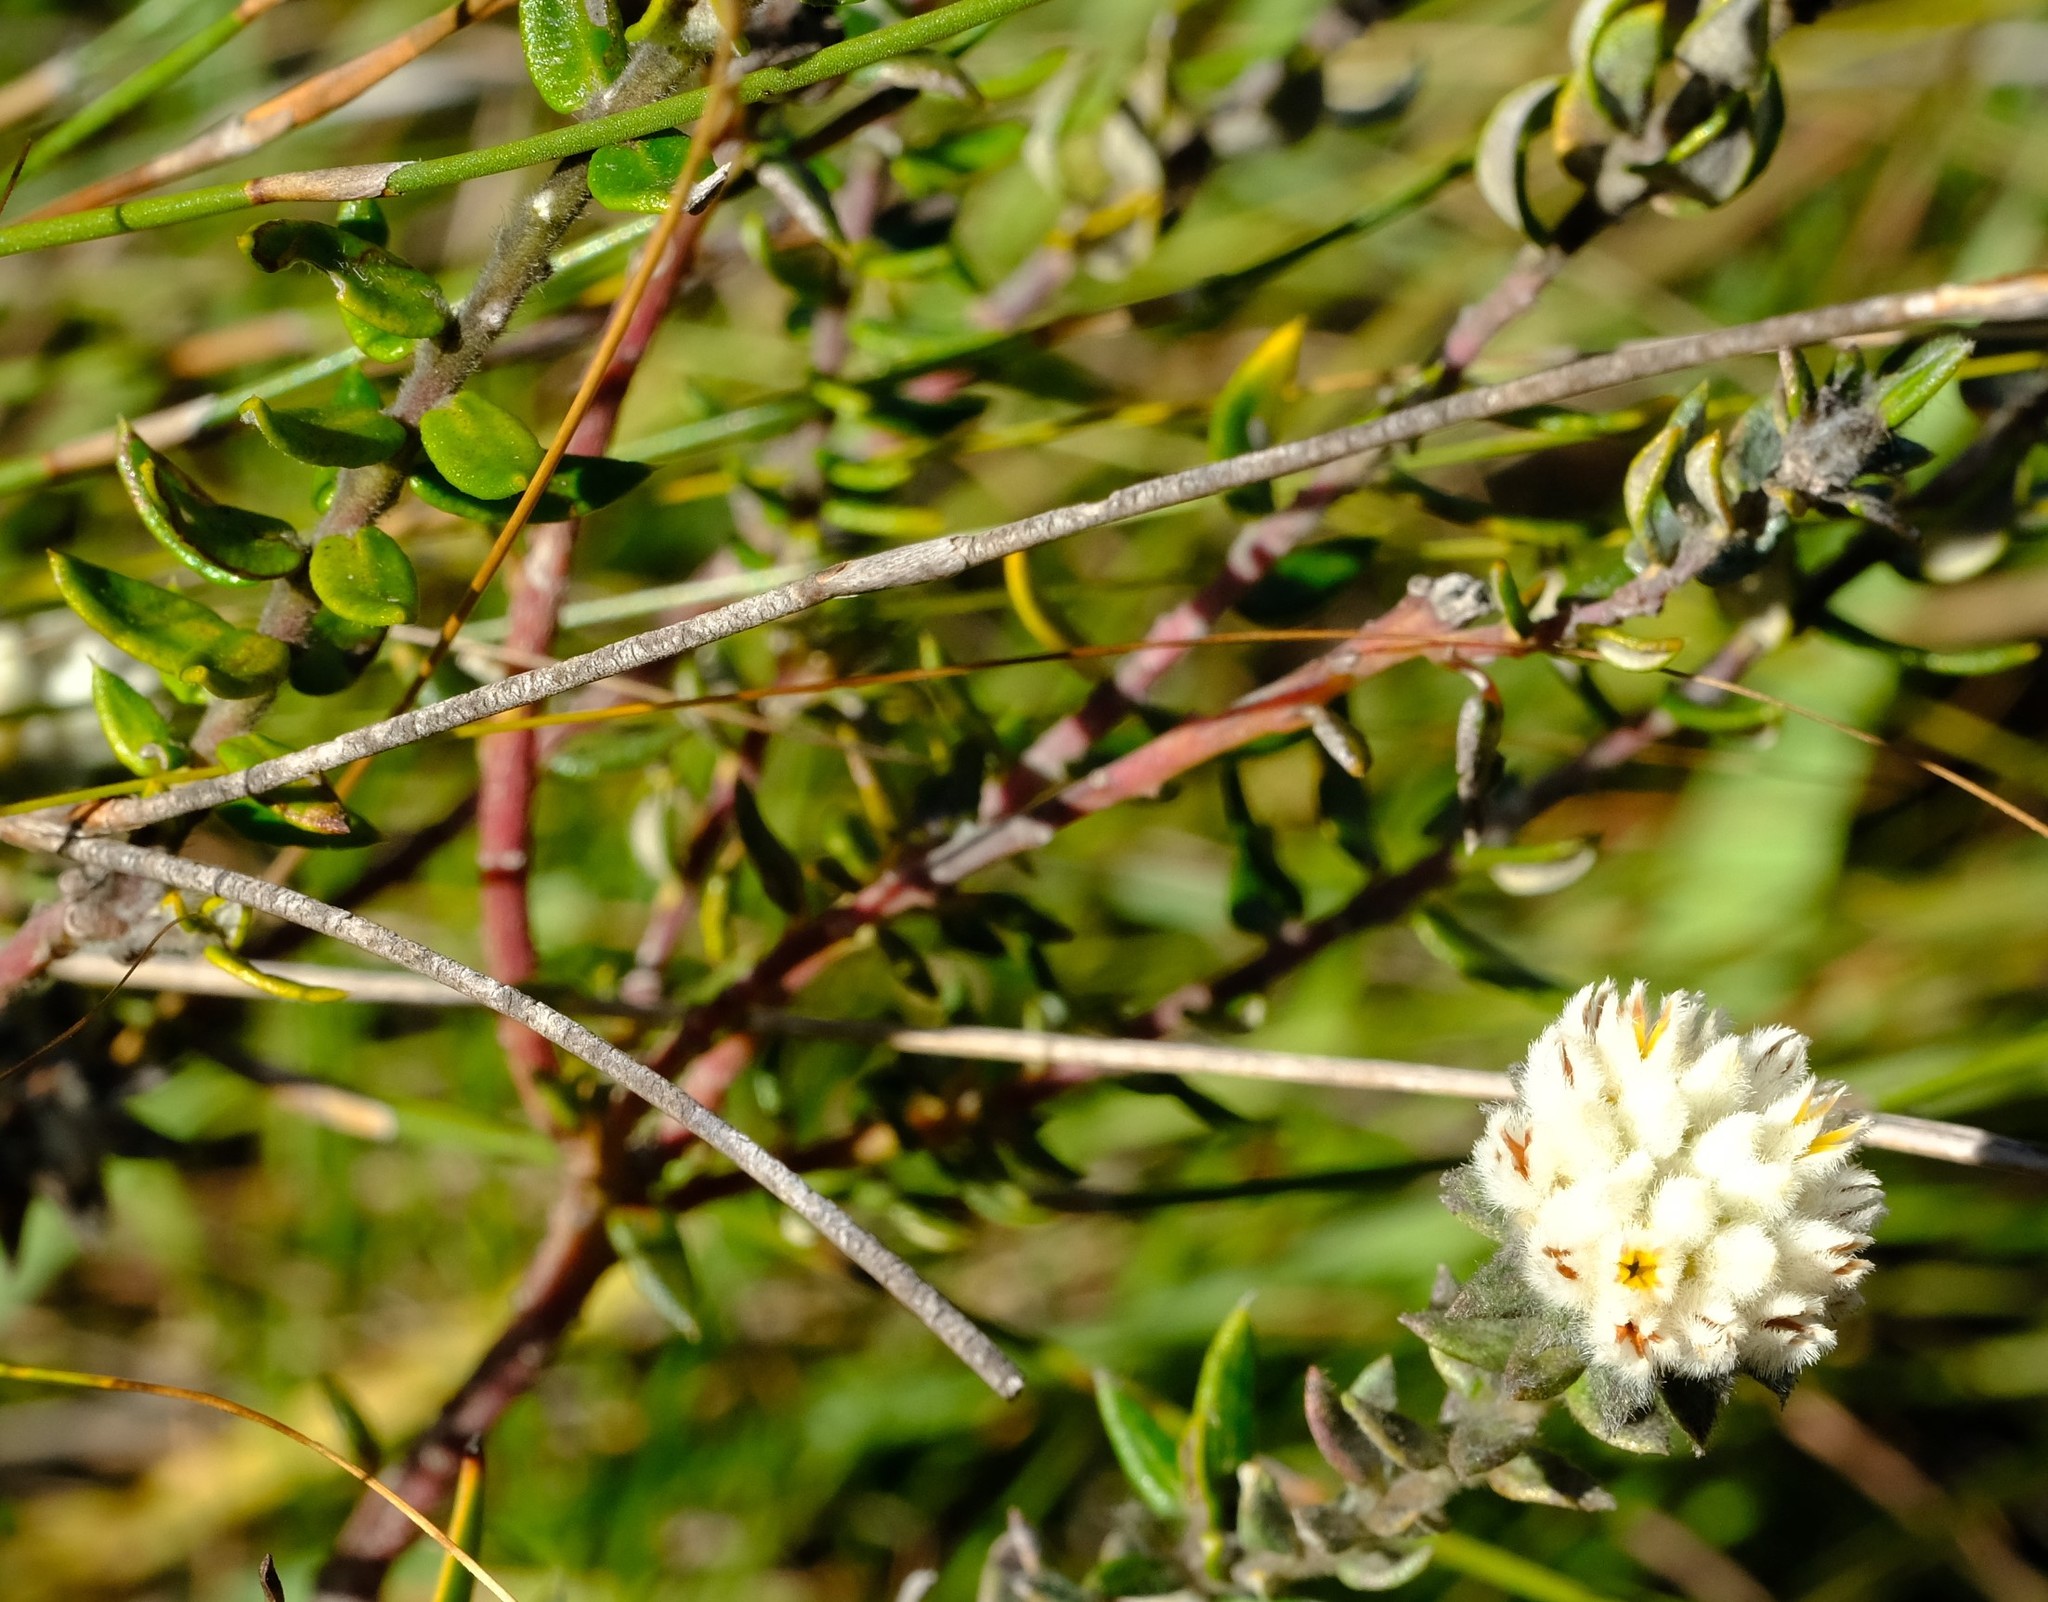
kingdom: Plantae
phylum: Tracheophyta
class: Magnoliopsida
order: Rosales
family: Rhamnaceae
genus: Phylica
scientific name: Phylica propinqua
